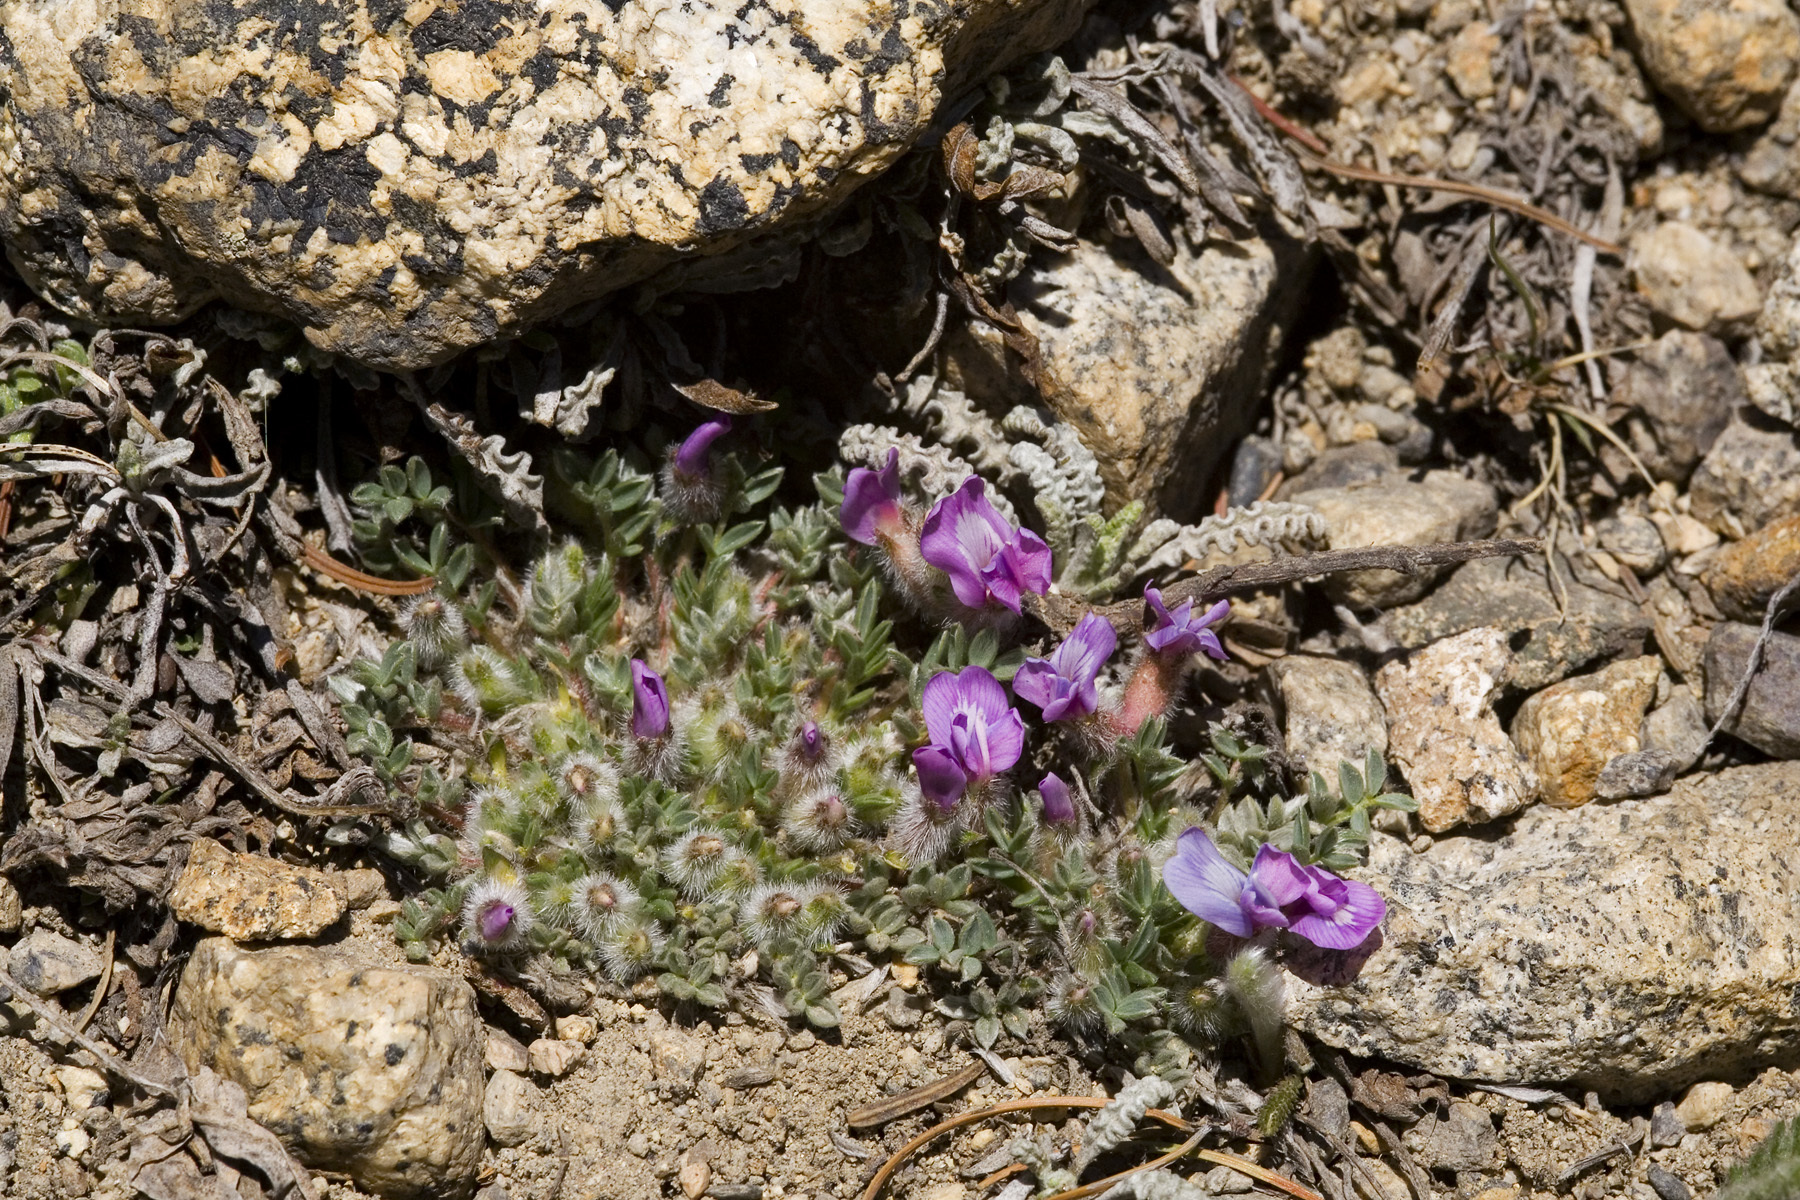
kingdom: Plantae
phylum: Tracheophyta
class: Magnoliopsida
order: Fabales
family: Fabaceae
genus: Oxytropis
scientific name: Oxytropis multiceps
